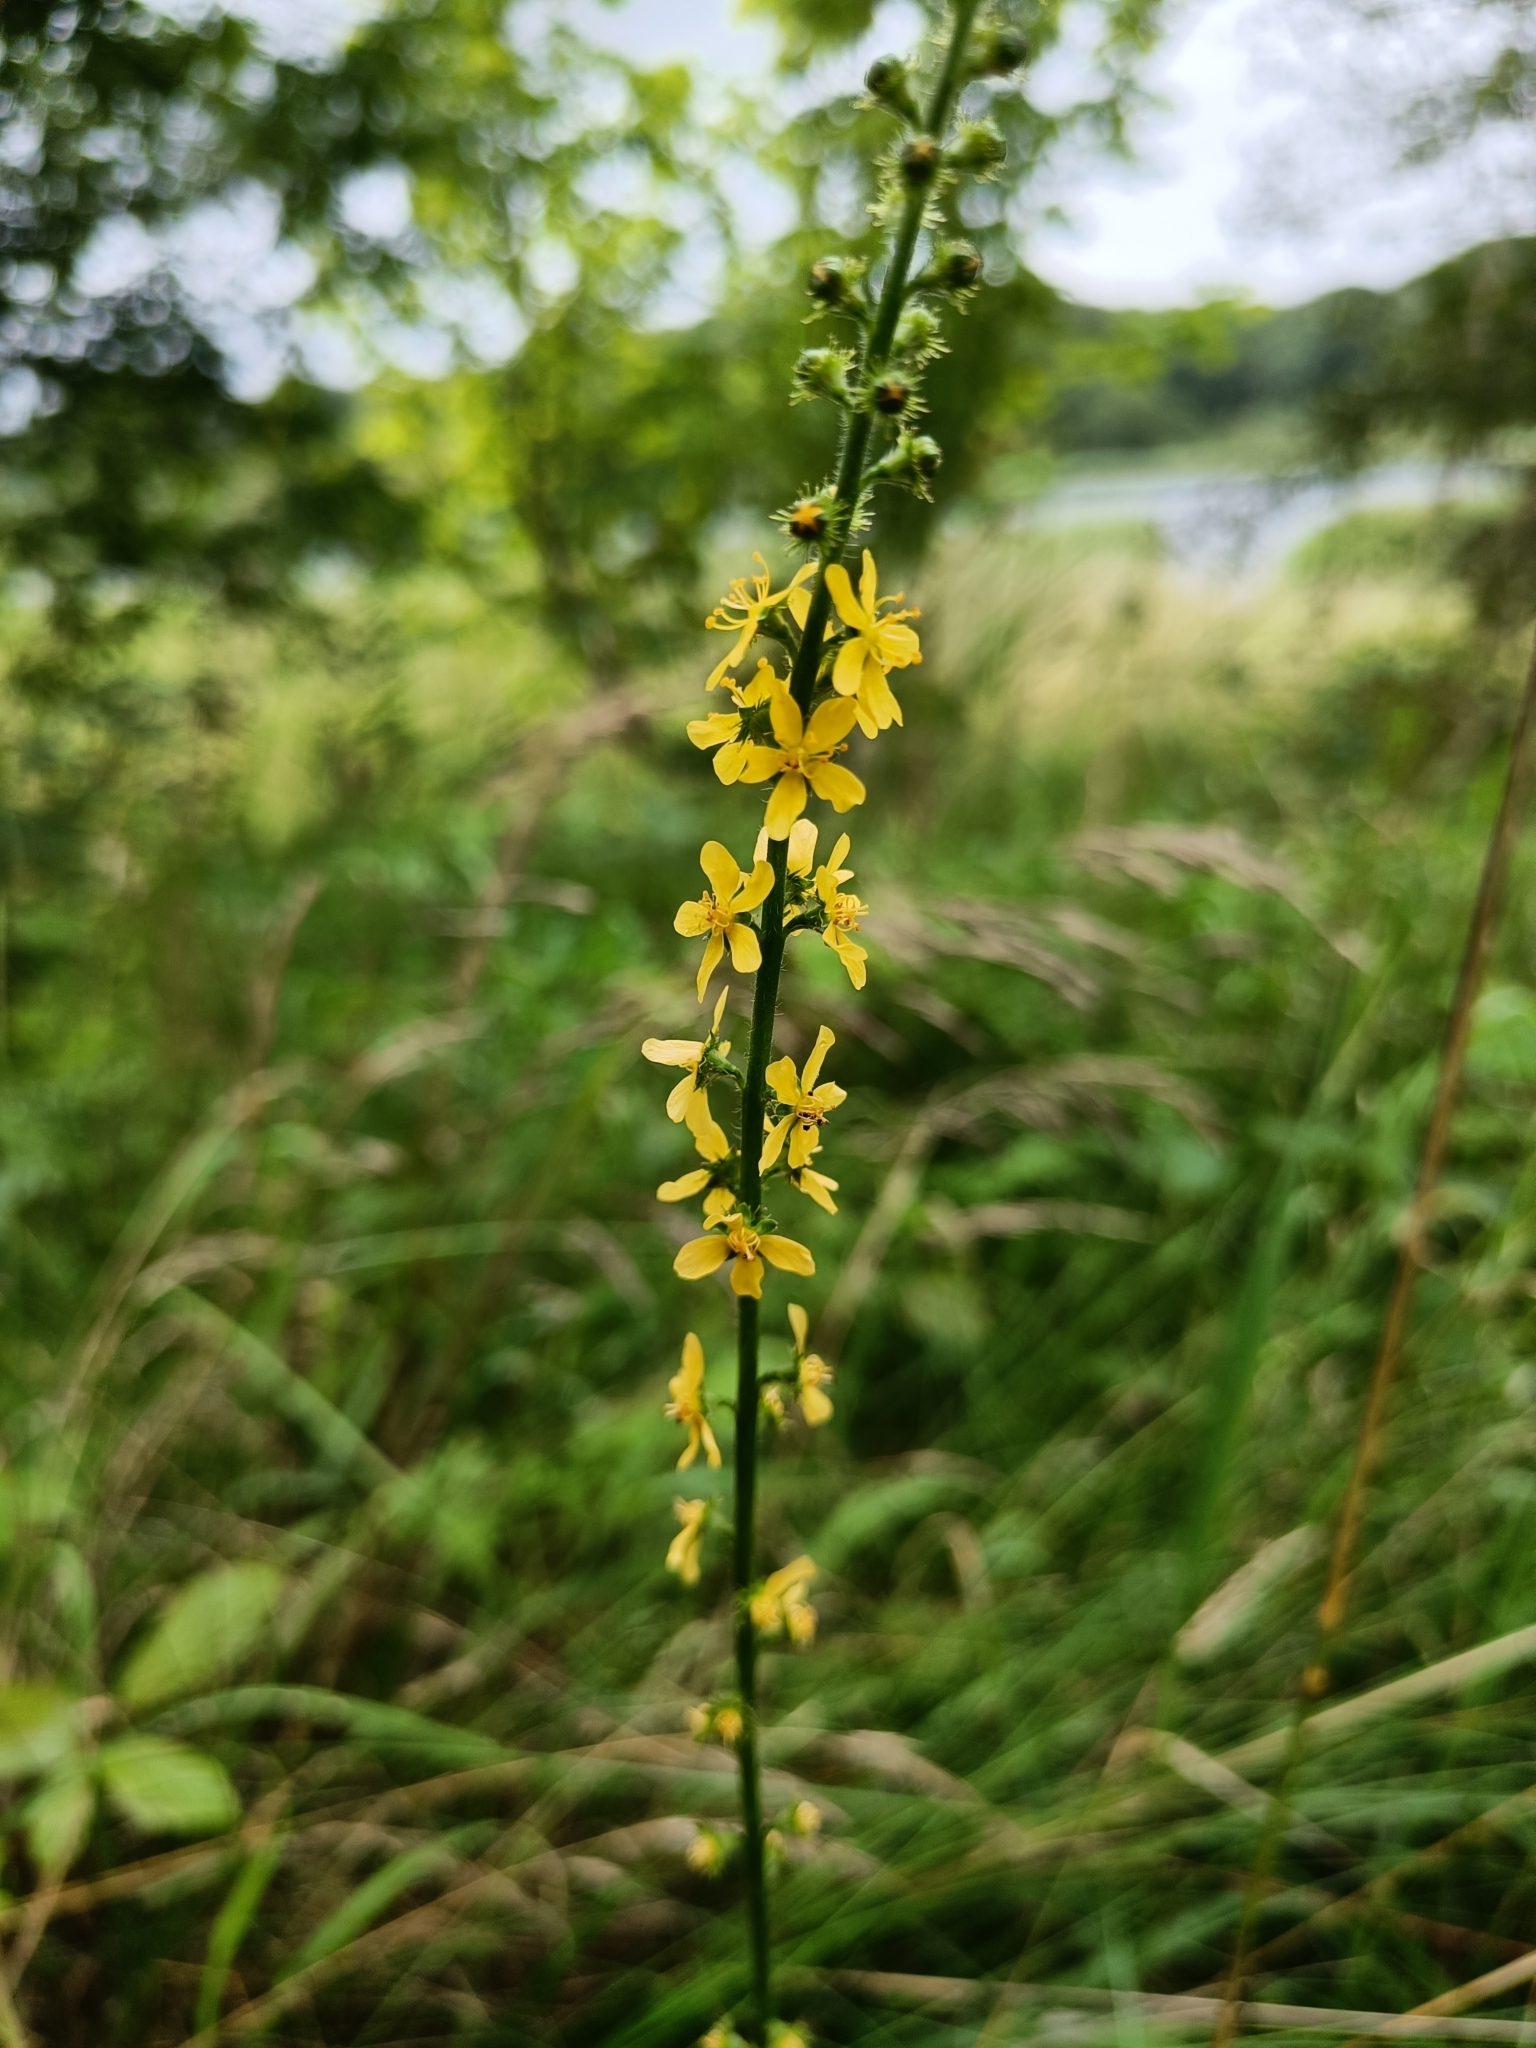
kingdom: Plantae
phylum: Tracheophyta
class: Magnoliopsida
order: Rosales
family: Rosaceae
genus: Agrimonia
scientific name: Agrimonia eupatoria
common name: Agrimony
